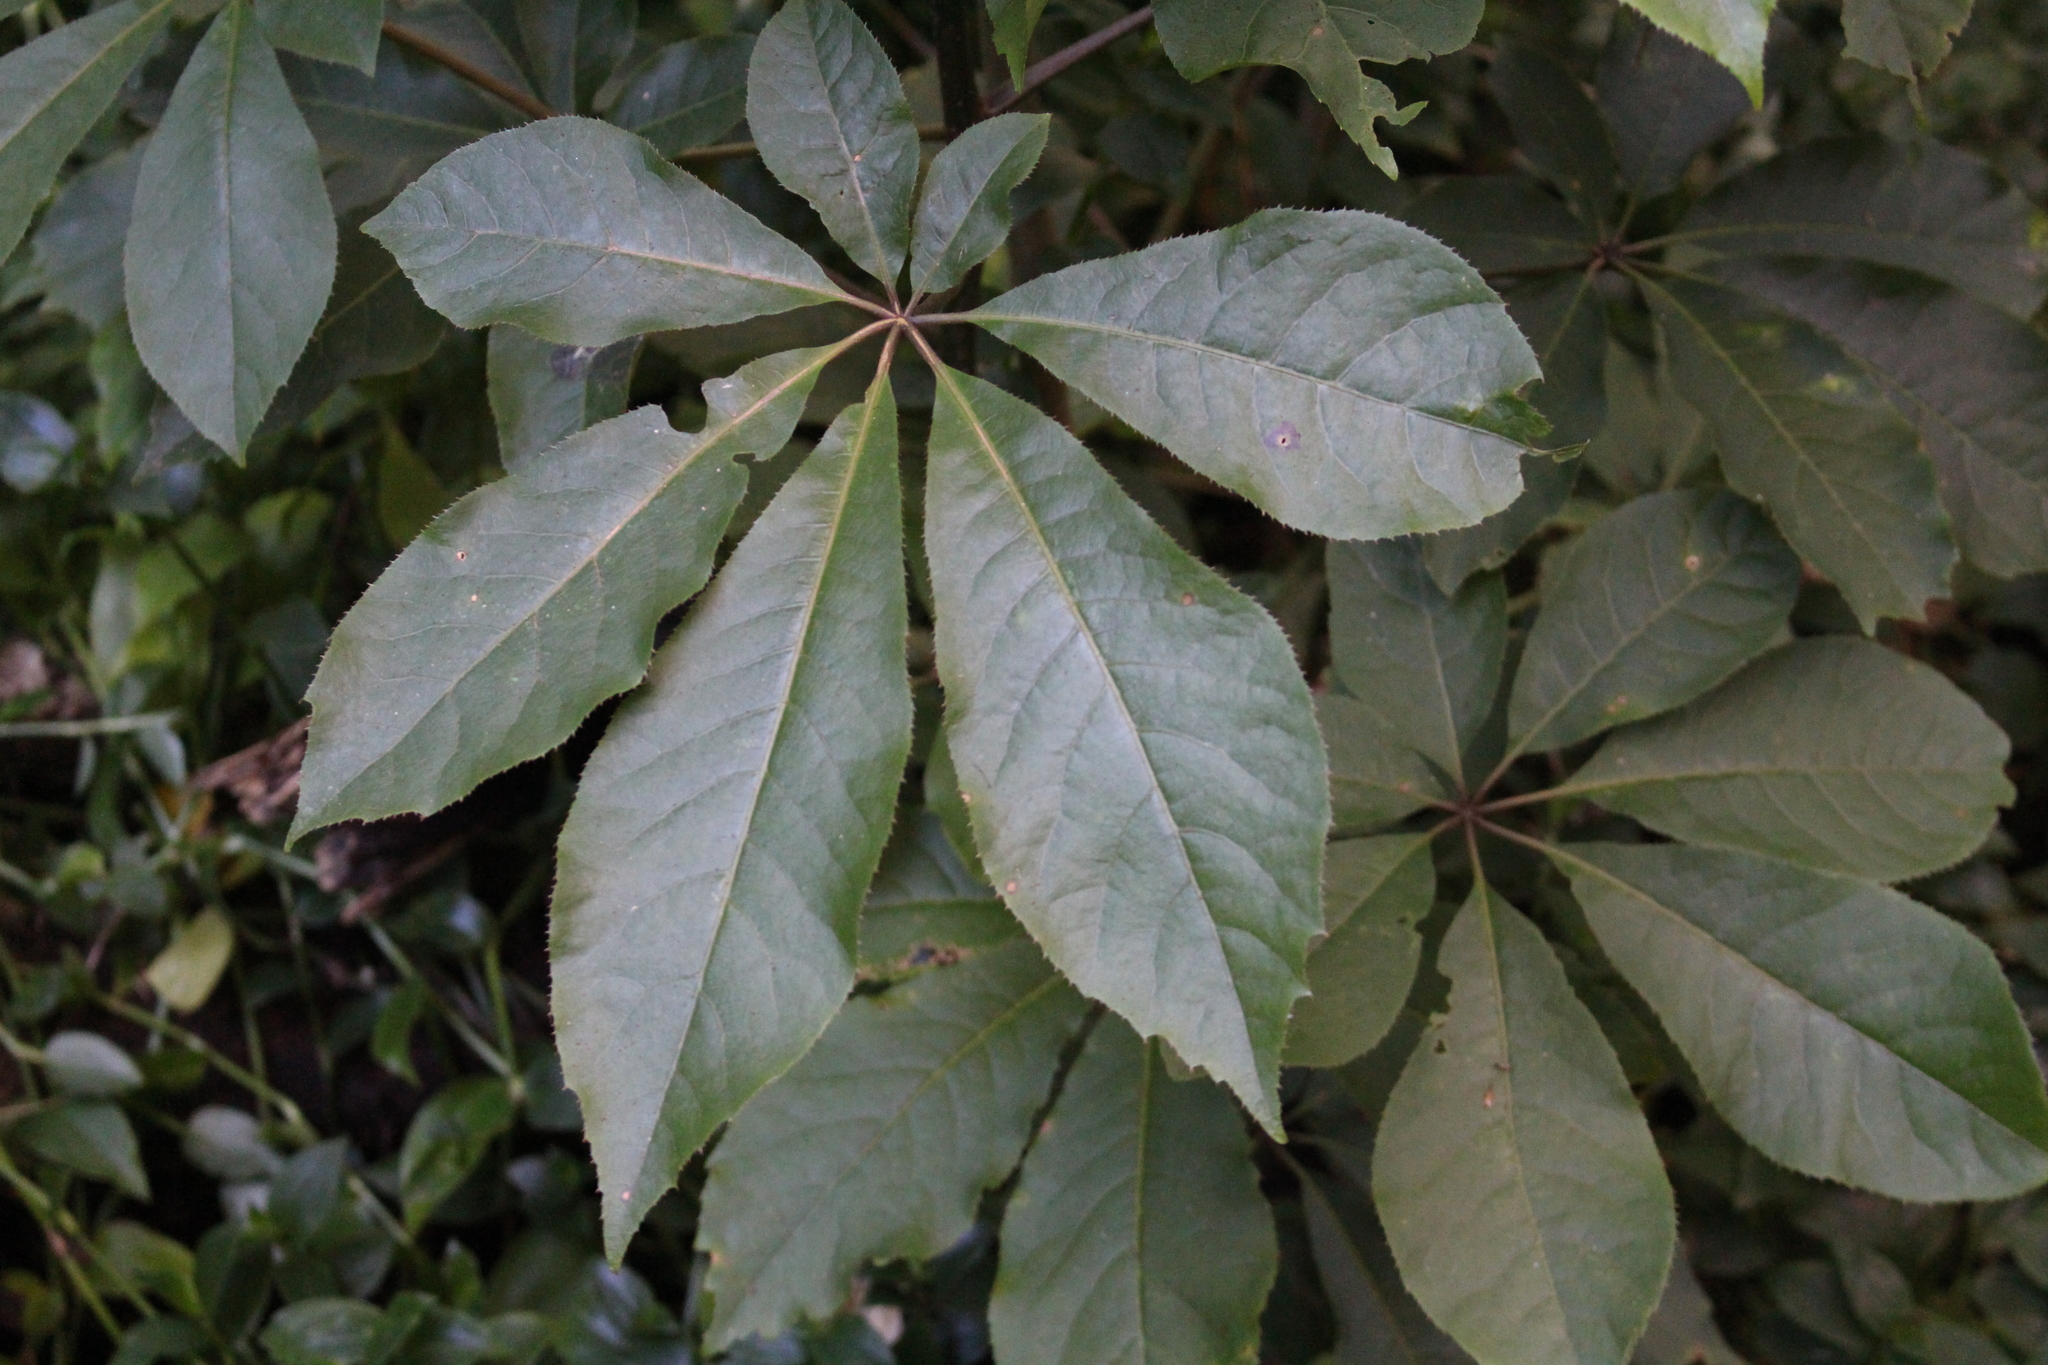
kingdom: Plantae
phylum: Tracheophyta
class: Magnoliopsida
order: Apiales
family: Araliaceae
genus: Schefflera
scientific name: Schefflera digitata
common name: Pate
